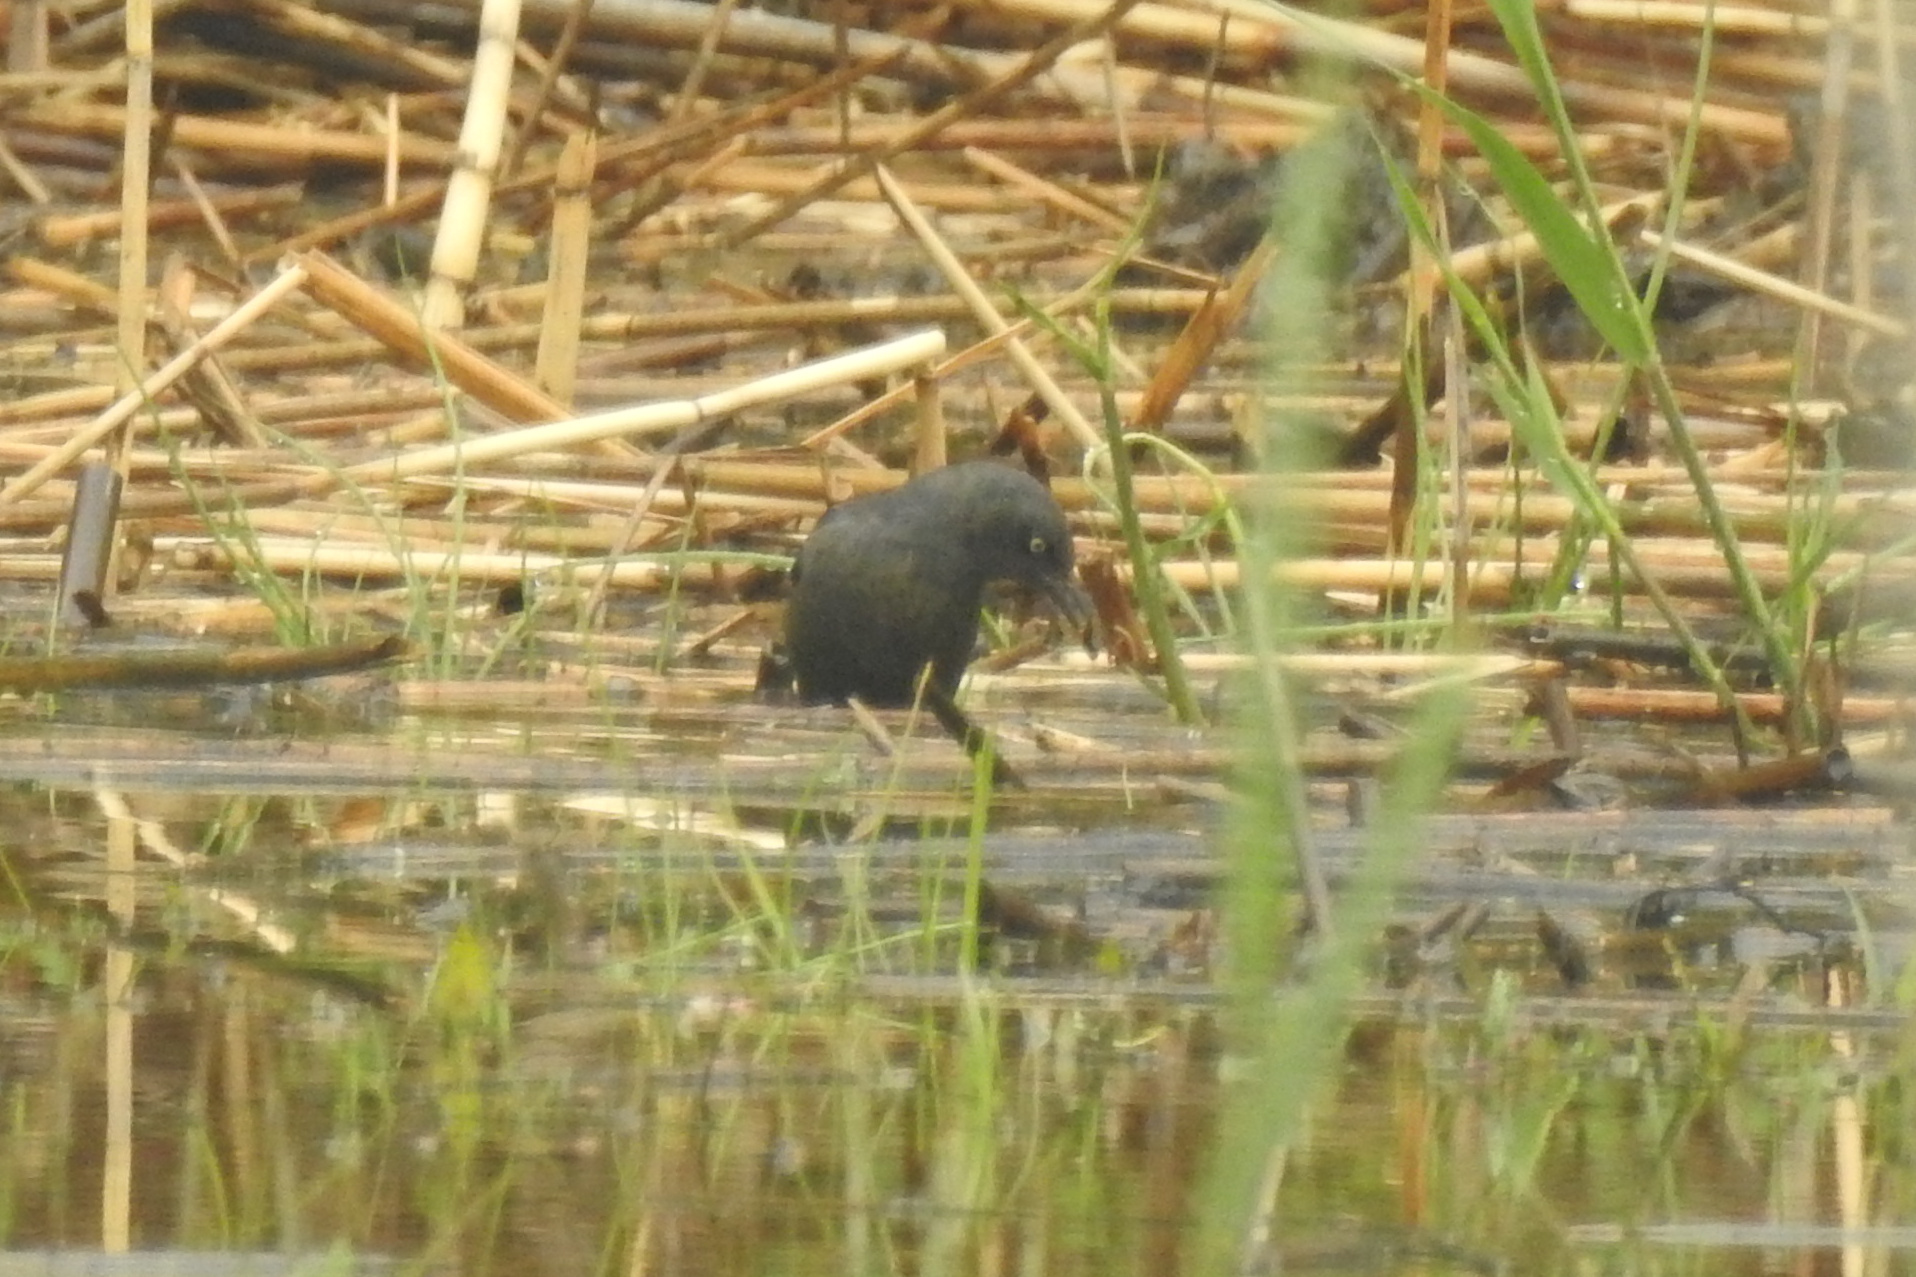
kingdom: Animalia
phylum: Chordata
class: Aves
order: Passeriformes
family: Icteridae
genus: Euphagus
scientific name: Euphagus carolinus
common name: Rusty blackbird
